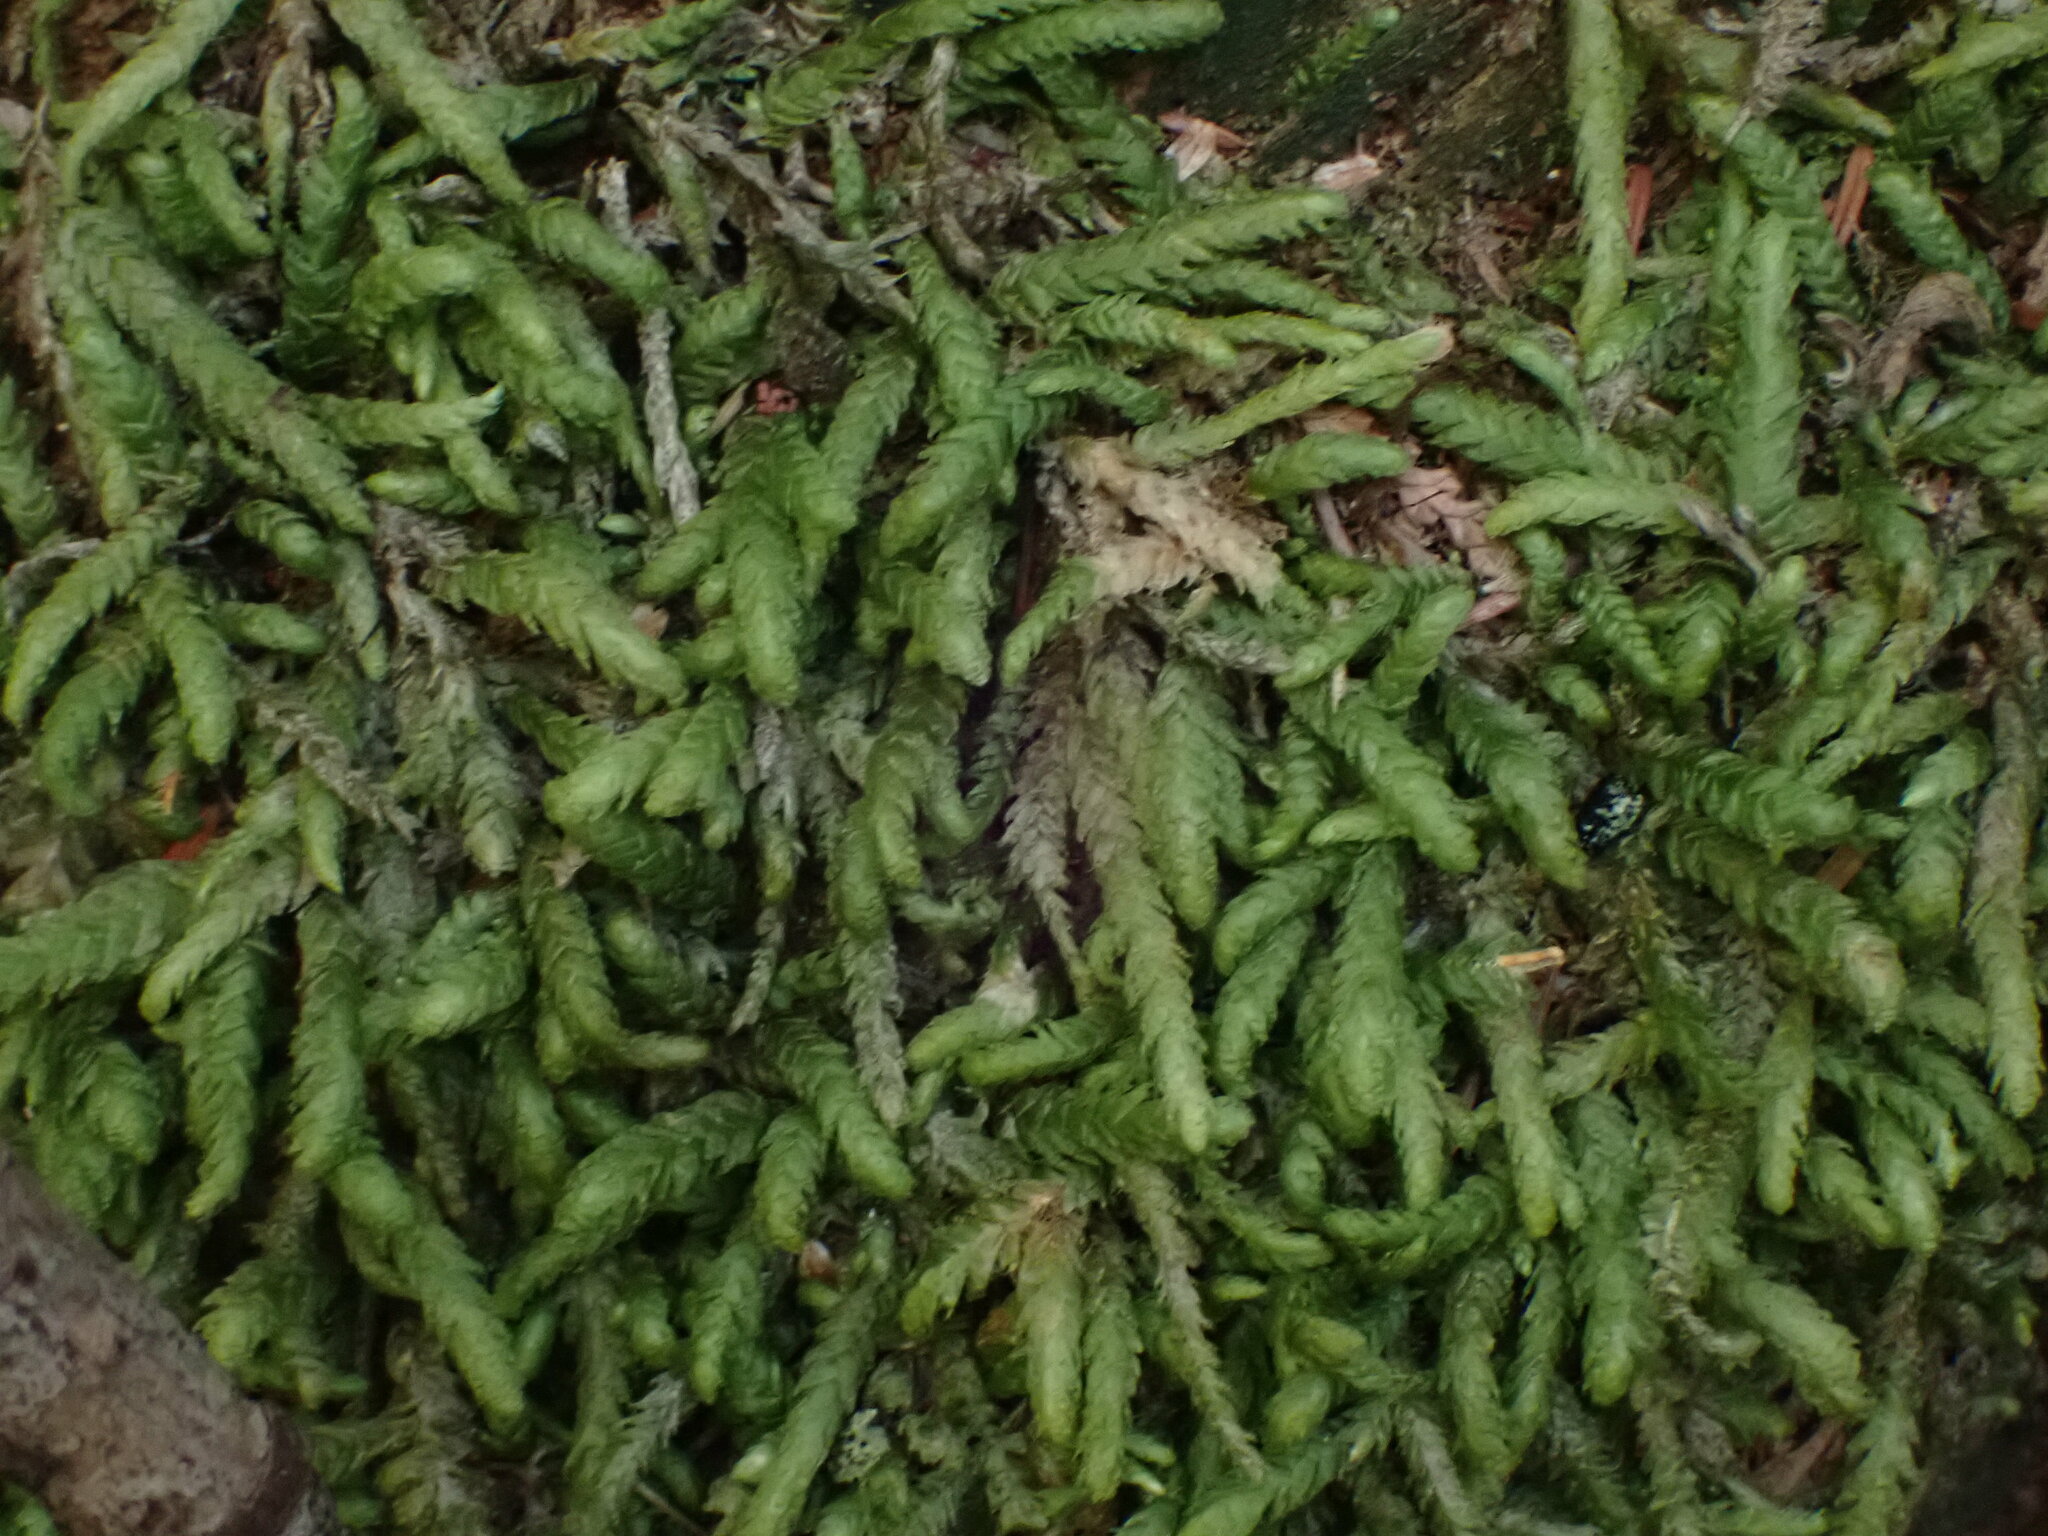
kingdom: Plantae
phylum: Bryophyta
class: Bryopsida
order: Hypnales
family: Plagiotheciaceae
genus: Plagiothecium
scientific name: Plagiothecium undulatum
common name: Waved silk-moss
